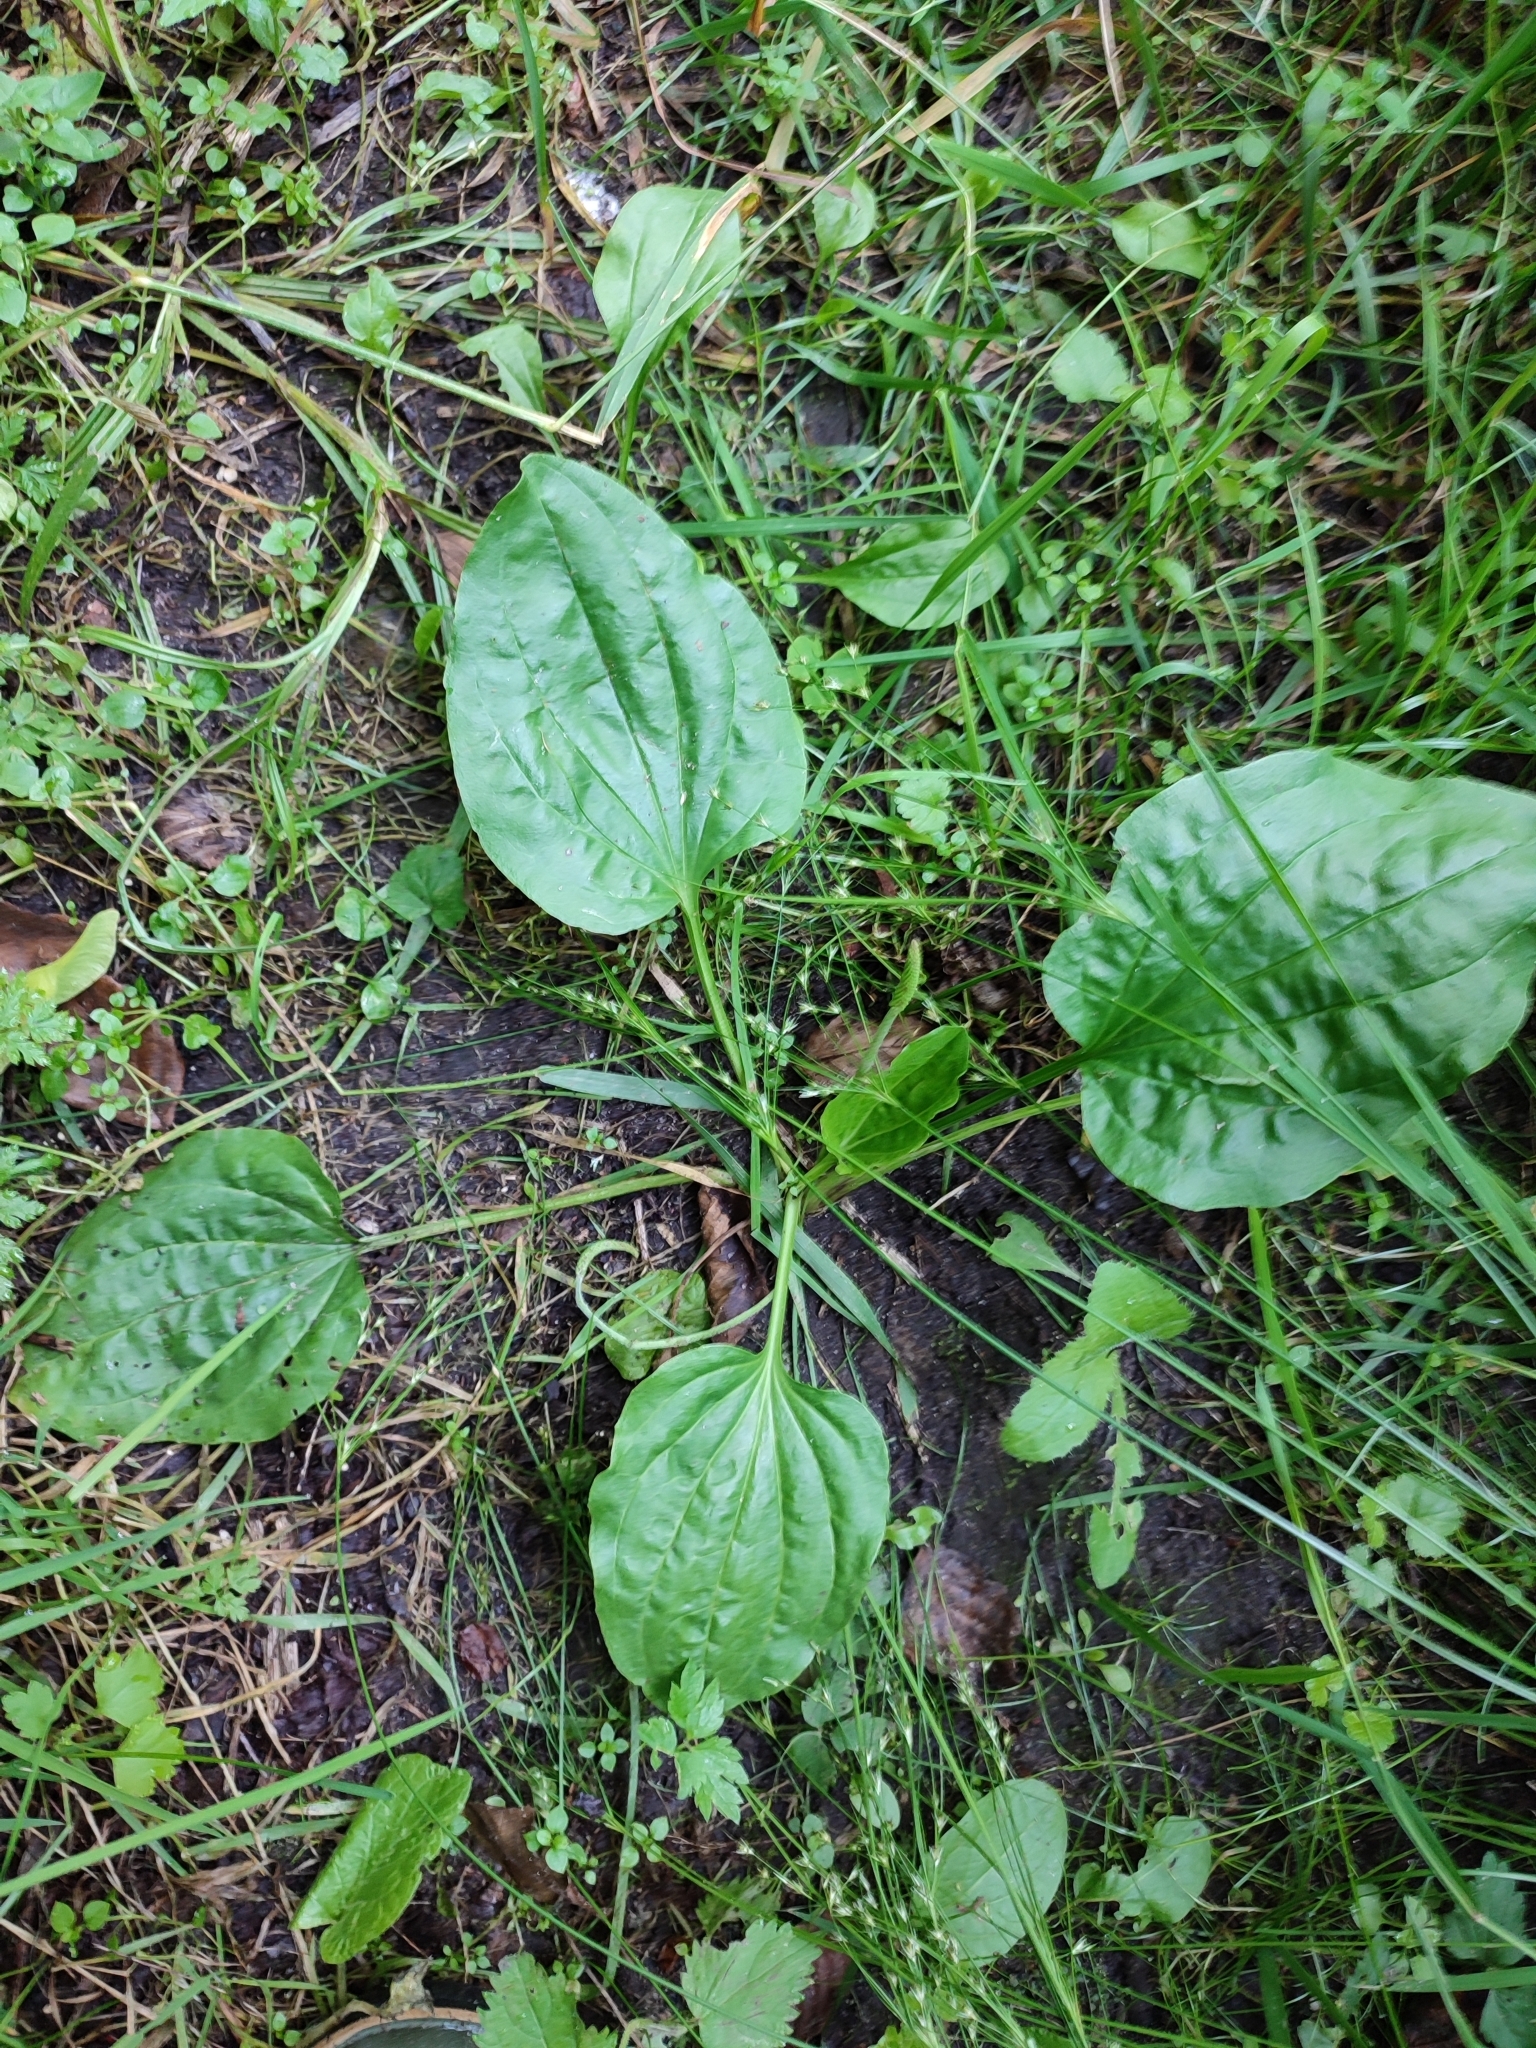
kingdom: Plantae
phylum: Tracheophyta
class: Magnoliopsida
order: Lamiales
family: Plantaginaceae
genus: Plantago
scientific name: Plantago major
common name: Common plantain
